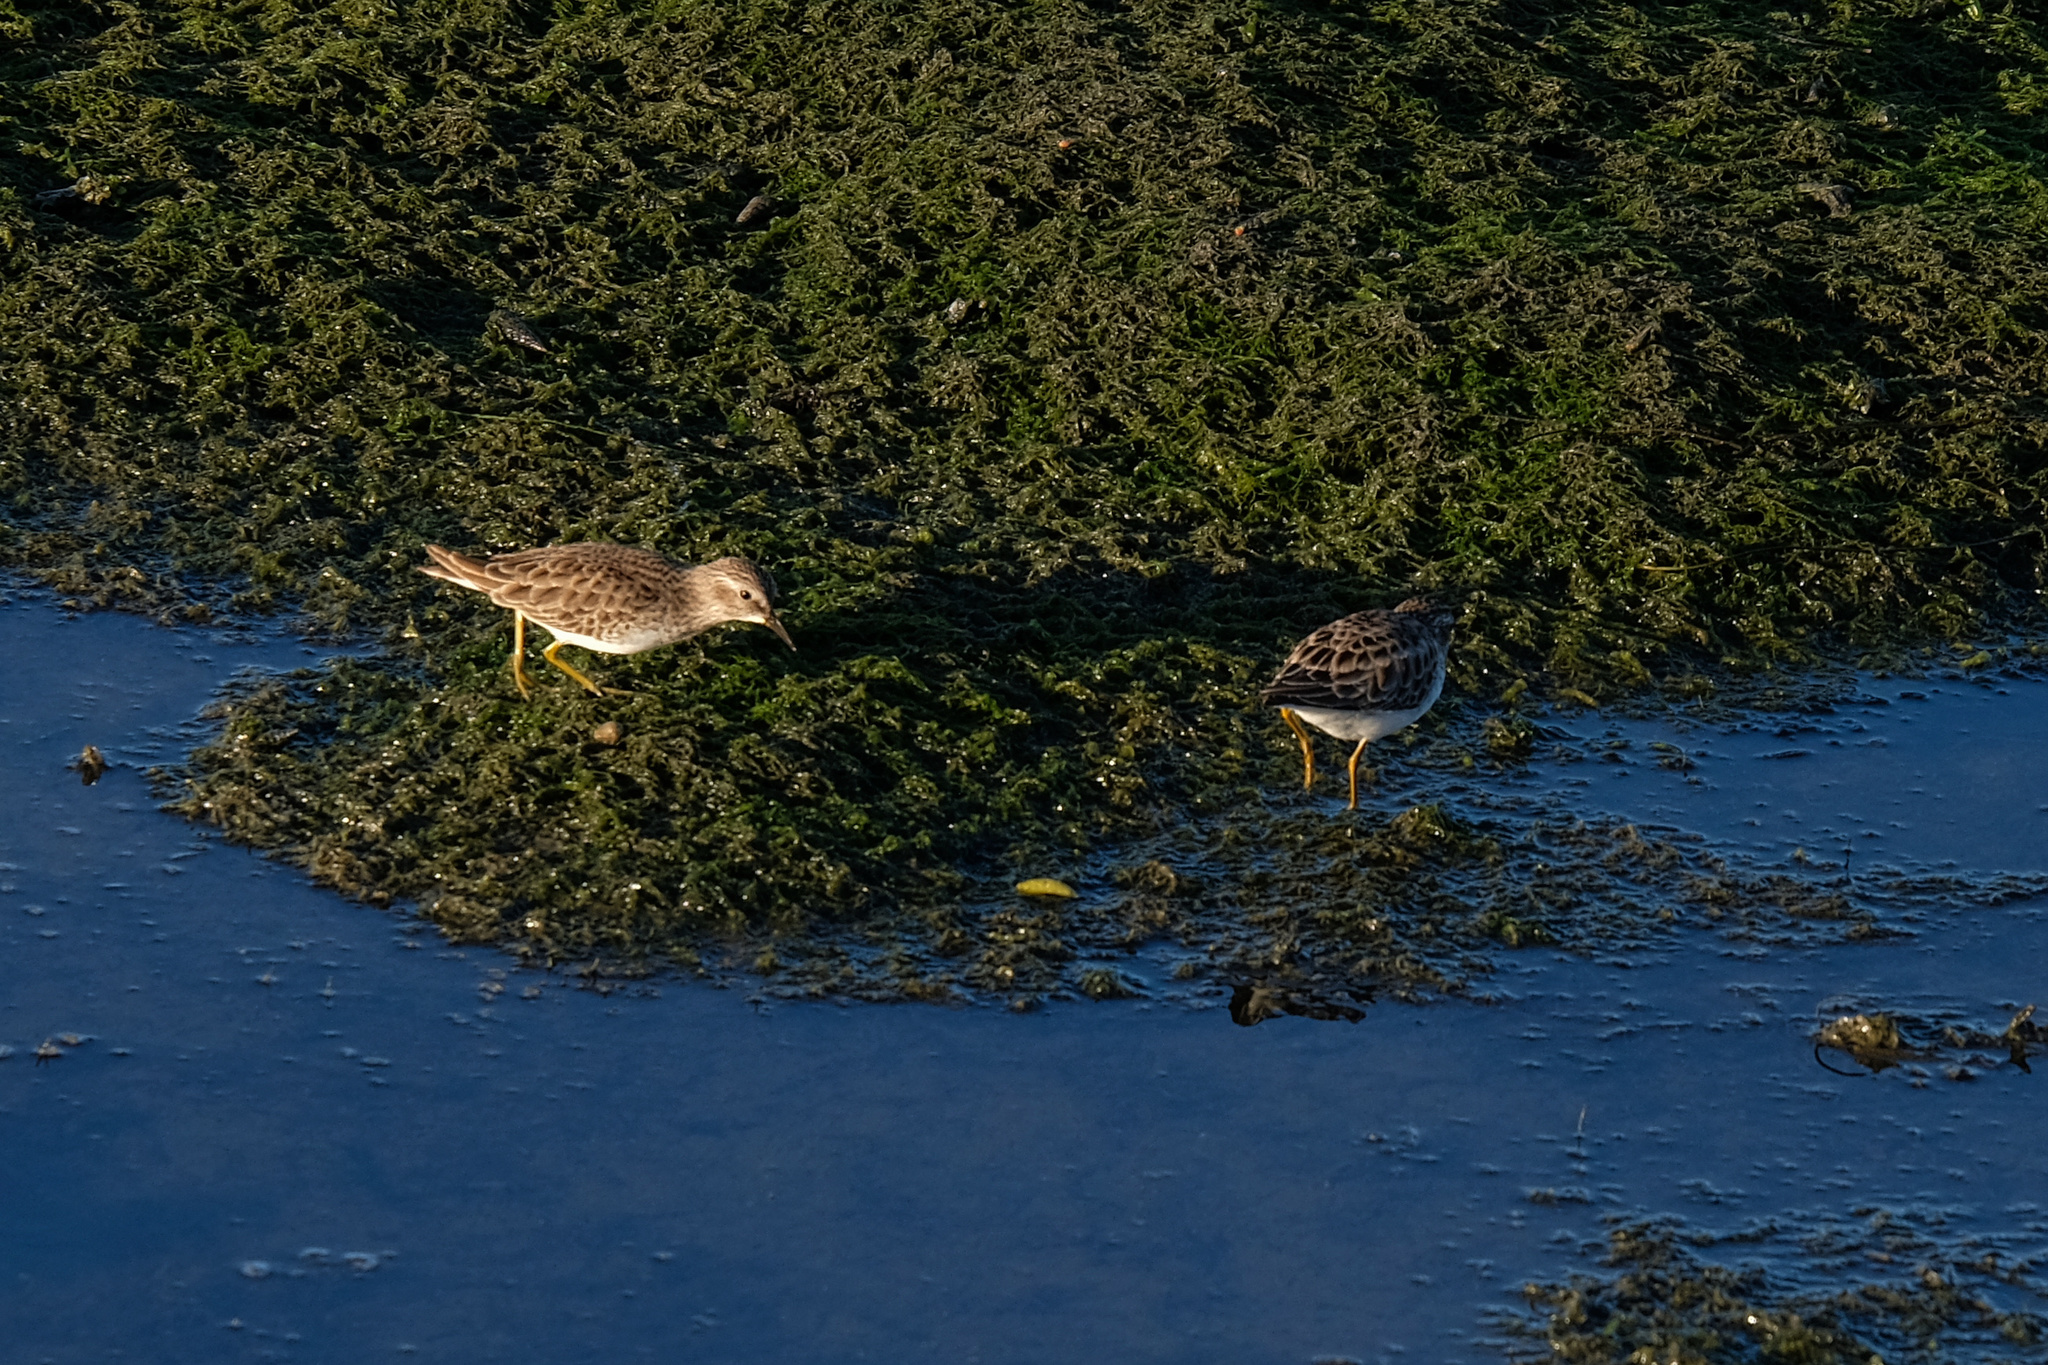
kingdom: Animalia
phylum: Chordata
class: Aves
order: Charadriiformes
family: Scolopacidae
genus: Calidris
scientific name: Calidris minutilla
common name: Least sandpiper
